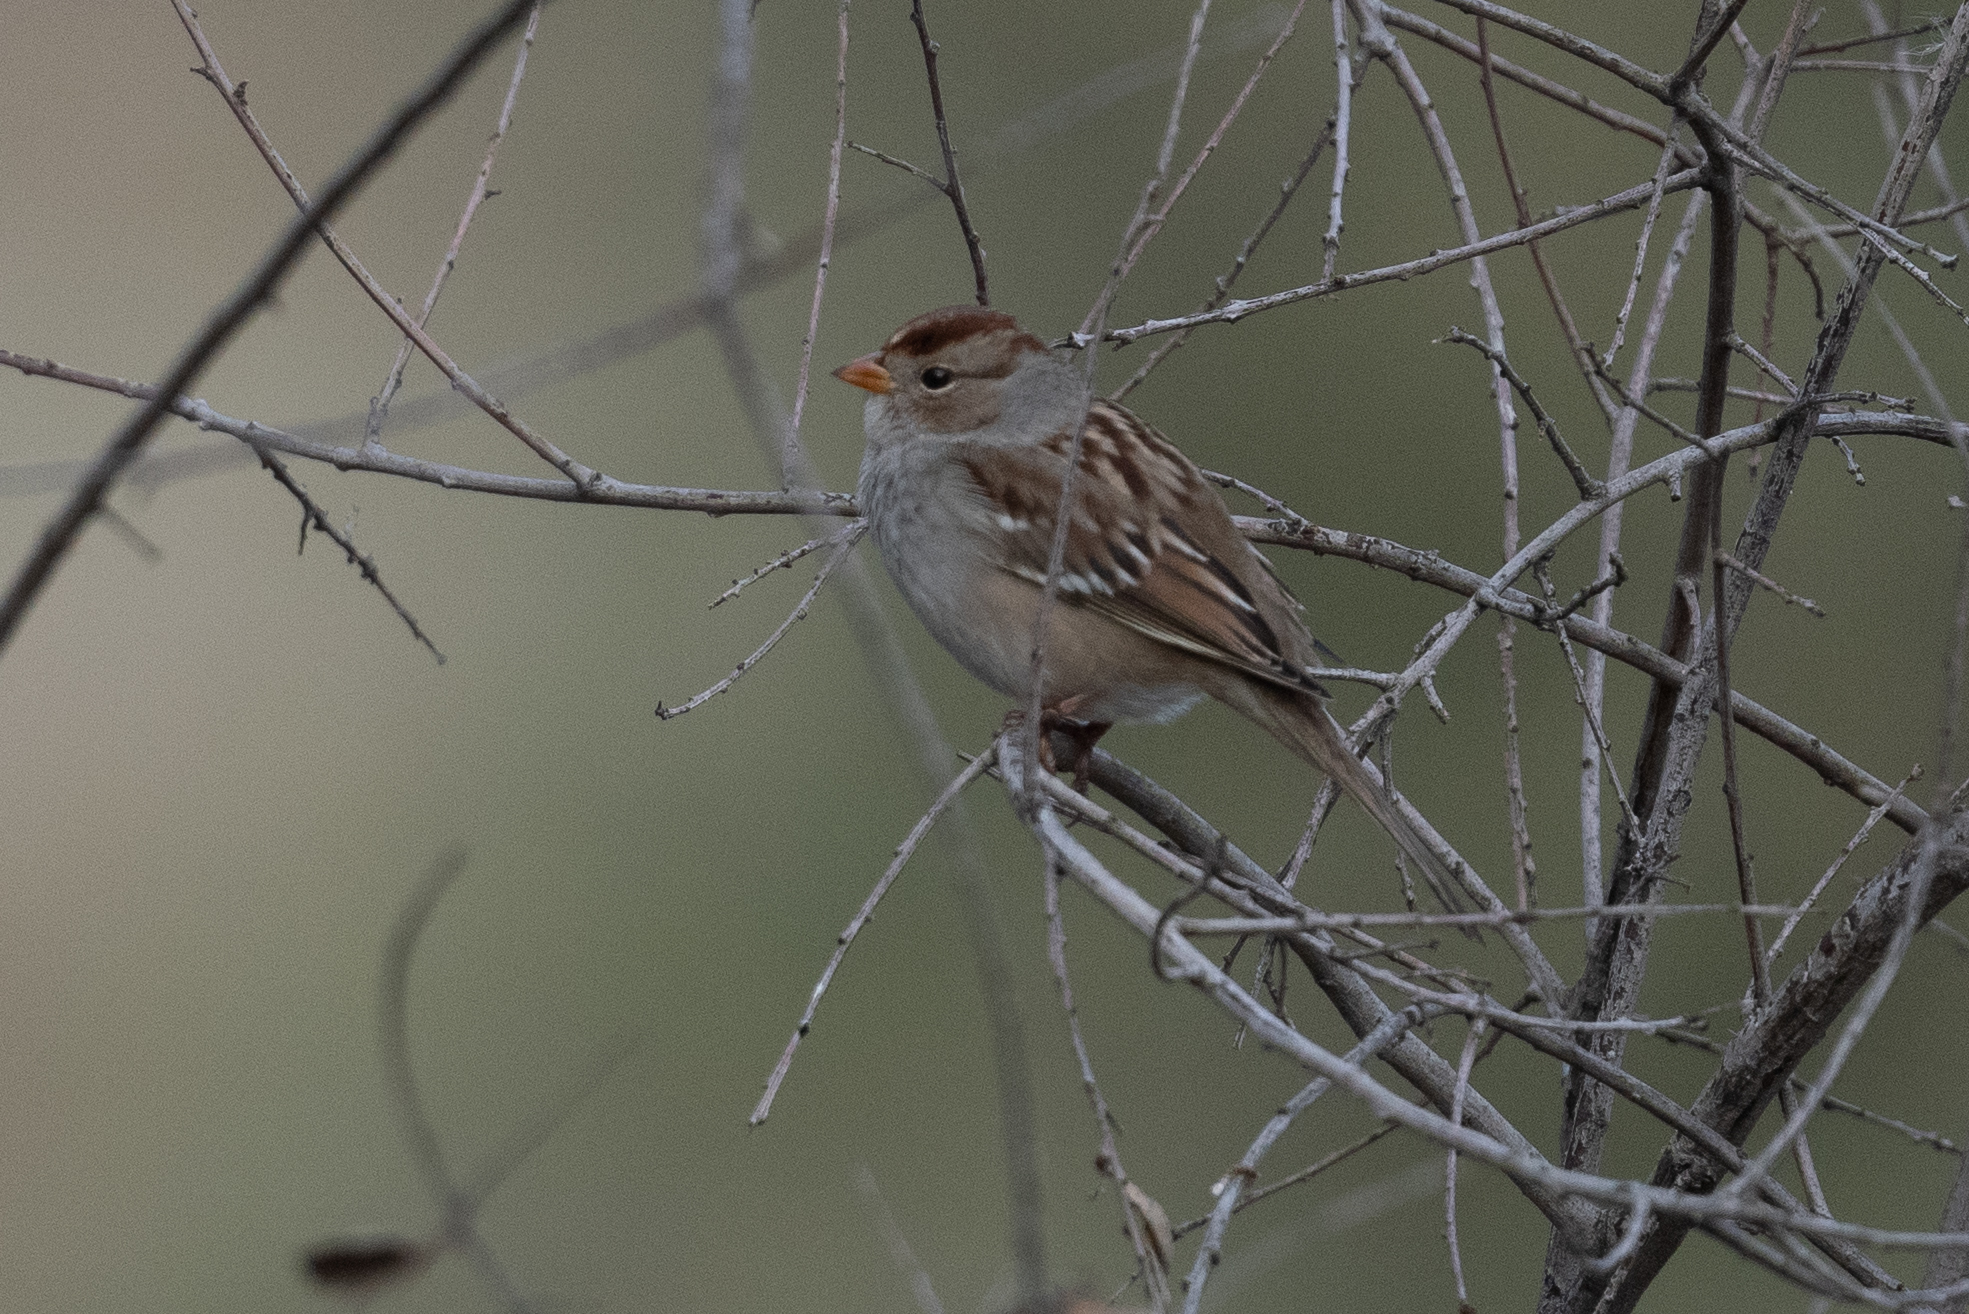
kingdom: Animalia
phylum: Chordata
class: Aves
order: Passeriformes
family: Passerellidae
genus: Zonotrichia
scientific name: Zonotrichia leucophrys
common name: White-crowned sparrow
